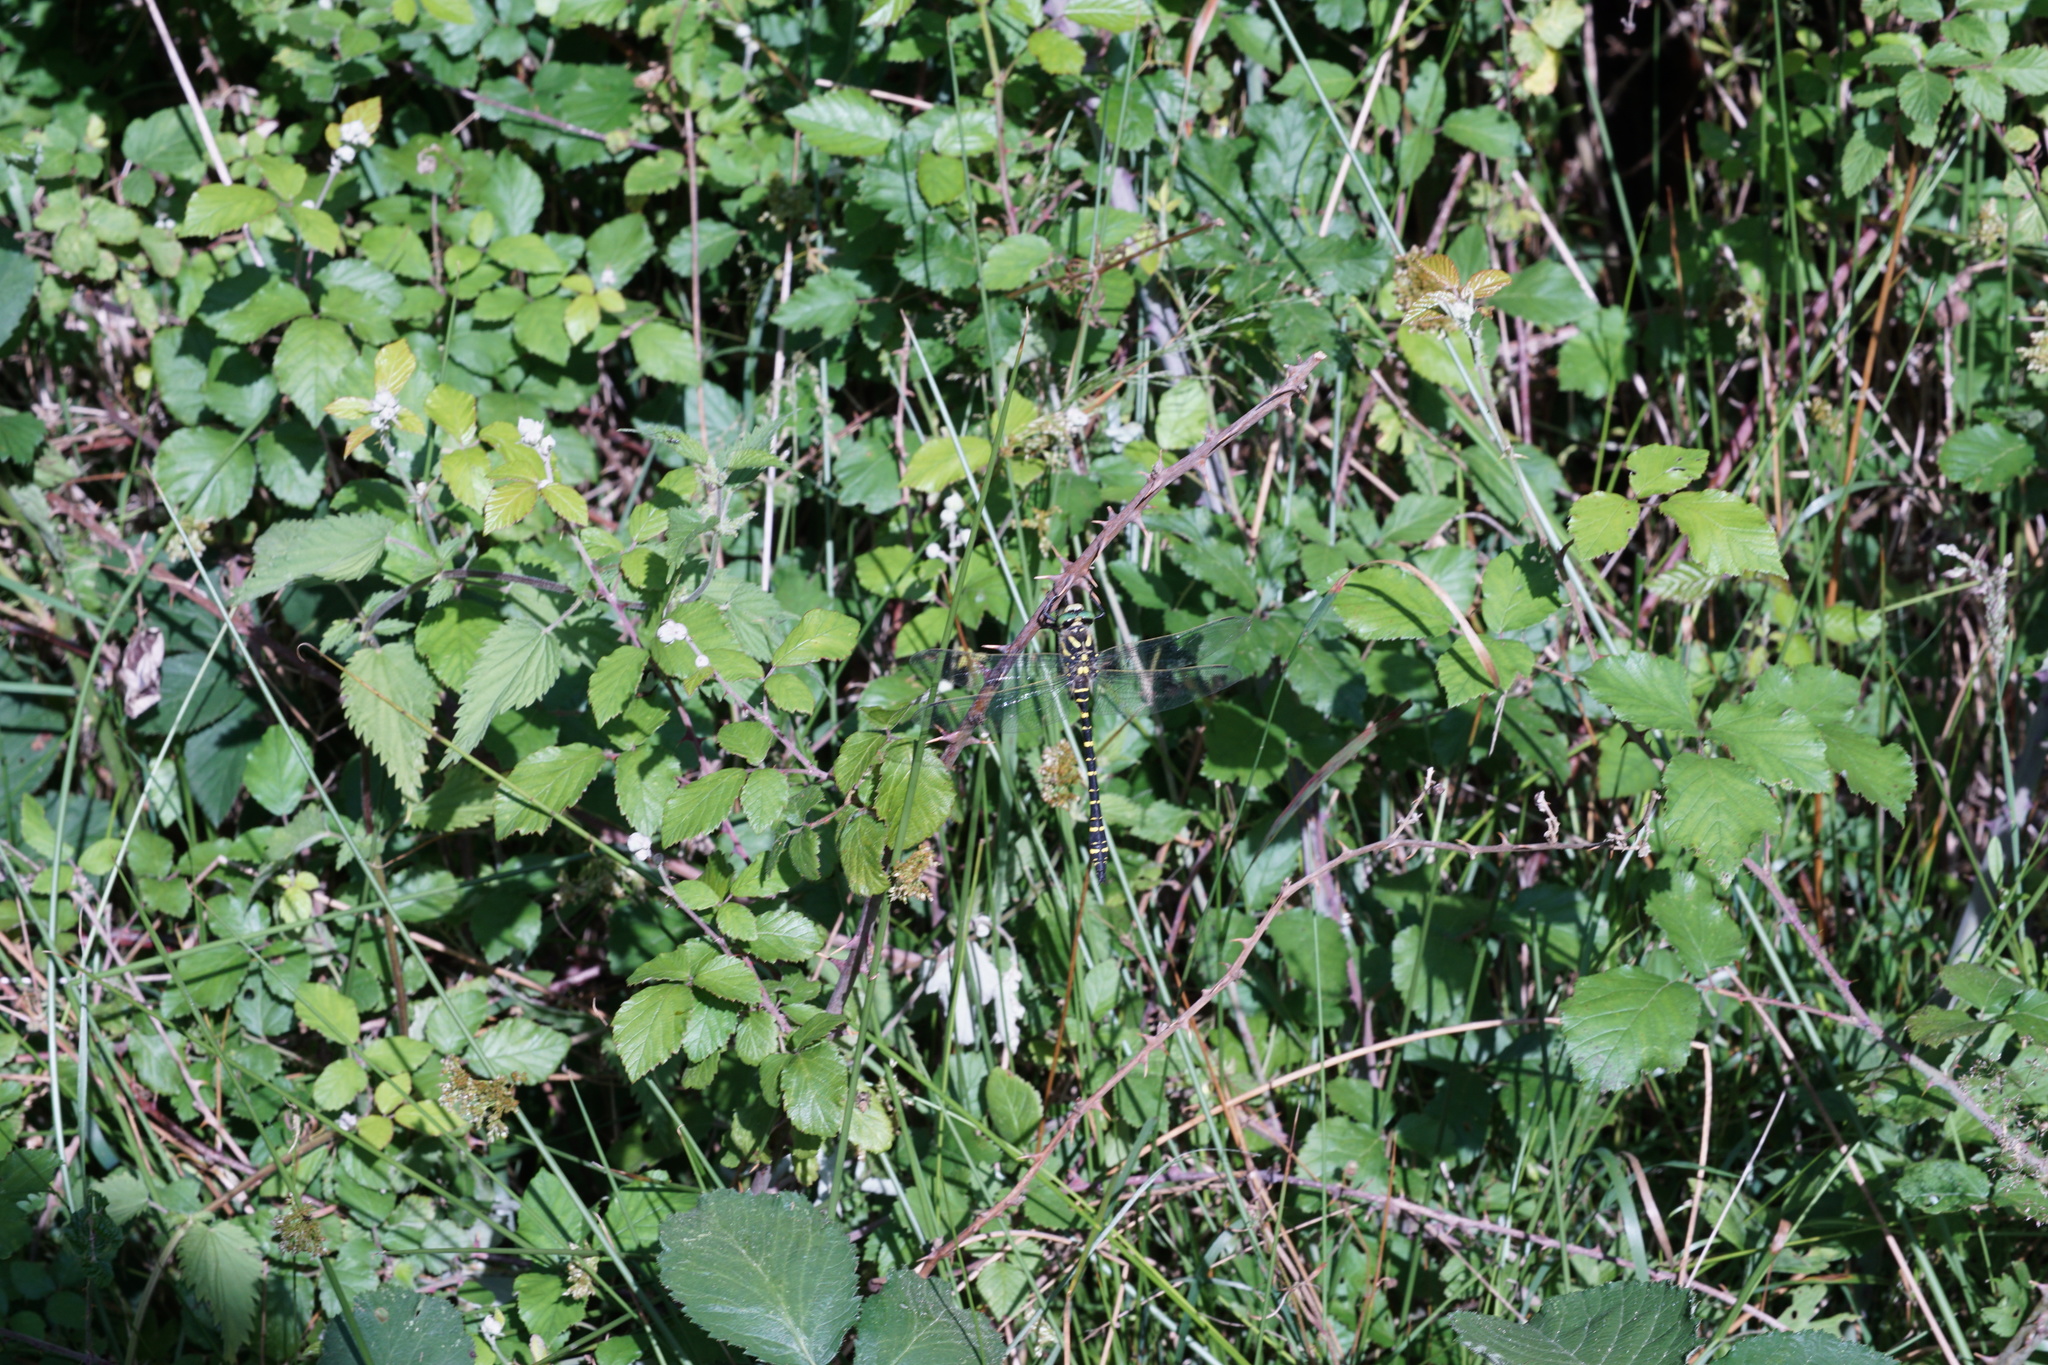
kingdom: Animalia
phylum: Arthropoda
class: Insecta
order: Odonata
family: Cordulegastridae
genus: Cordulegaster
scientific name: Cordulegaster boltonii
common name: Golden-ringed dragonfly
